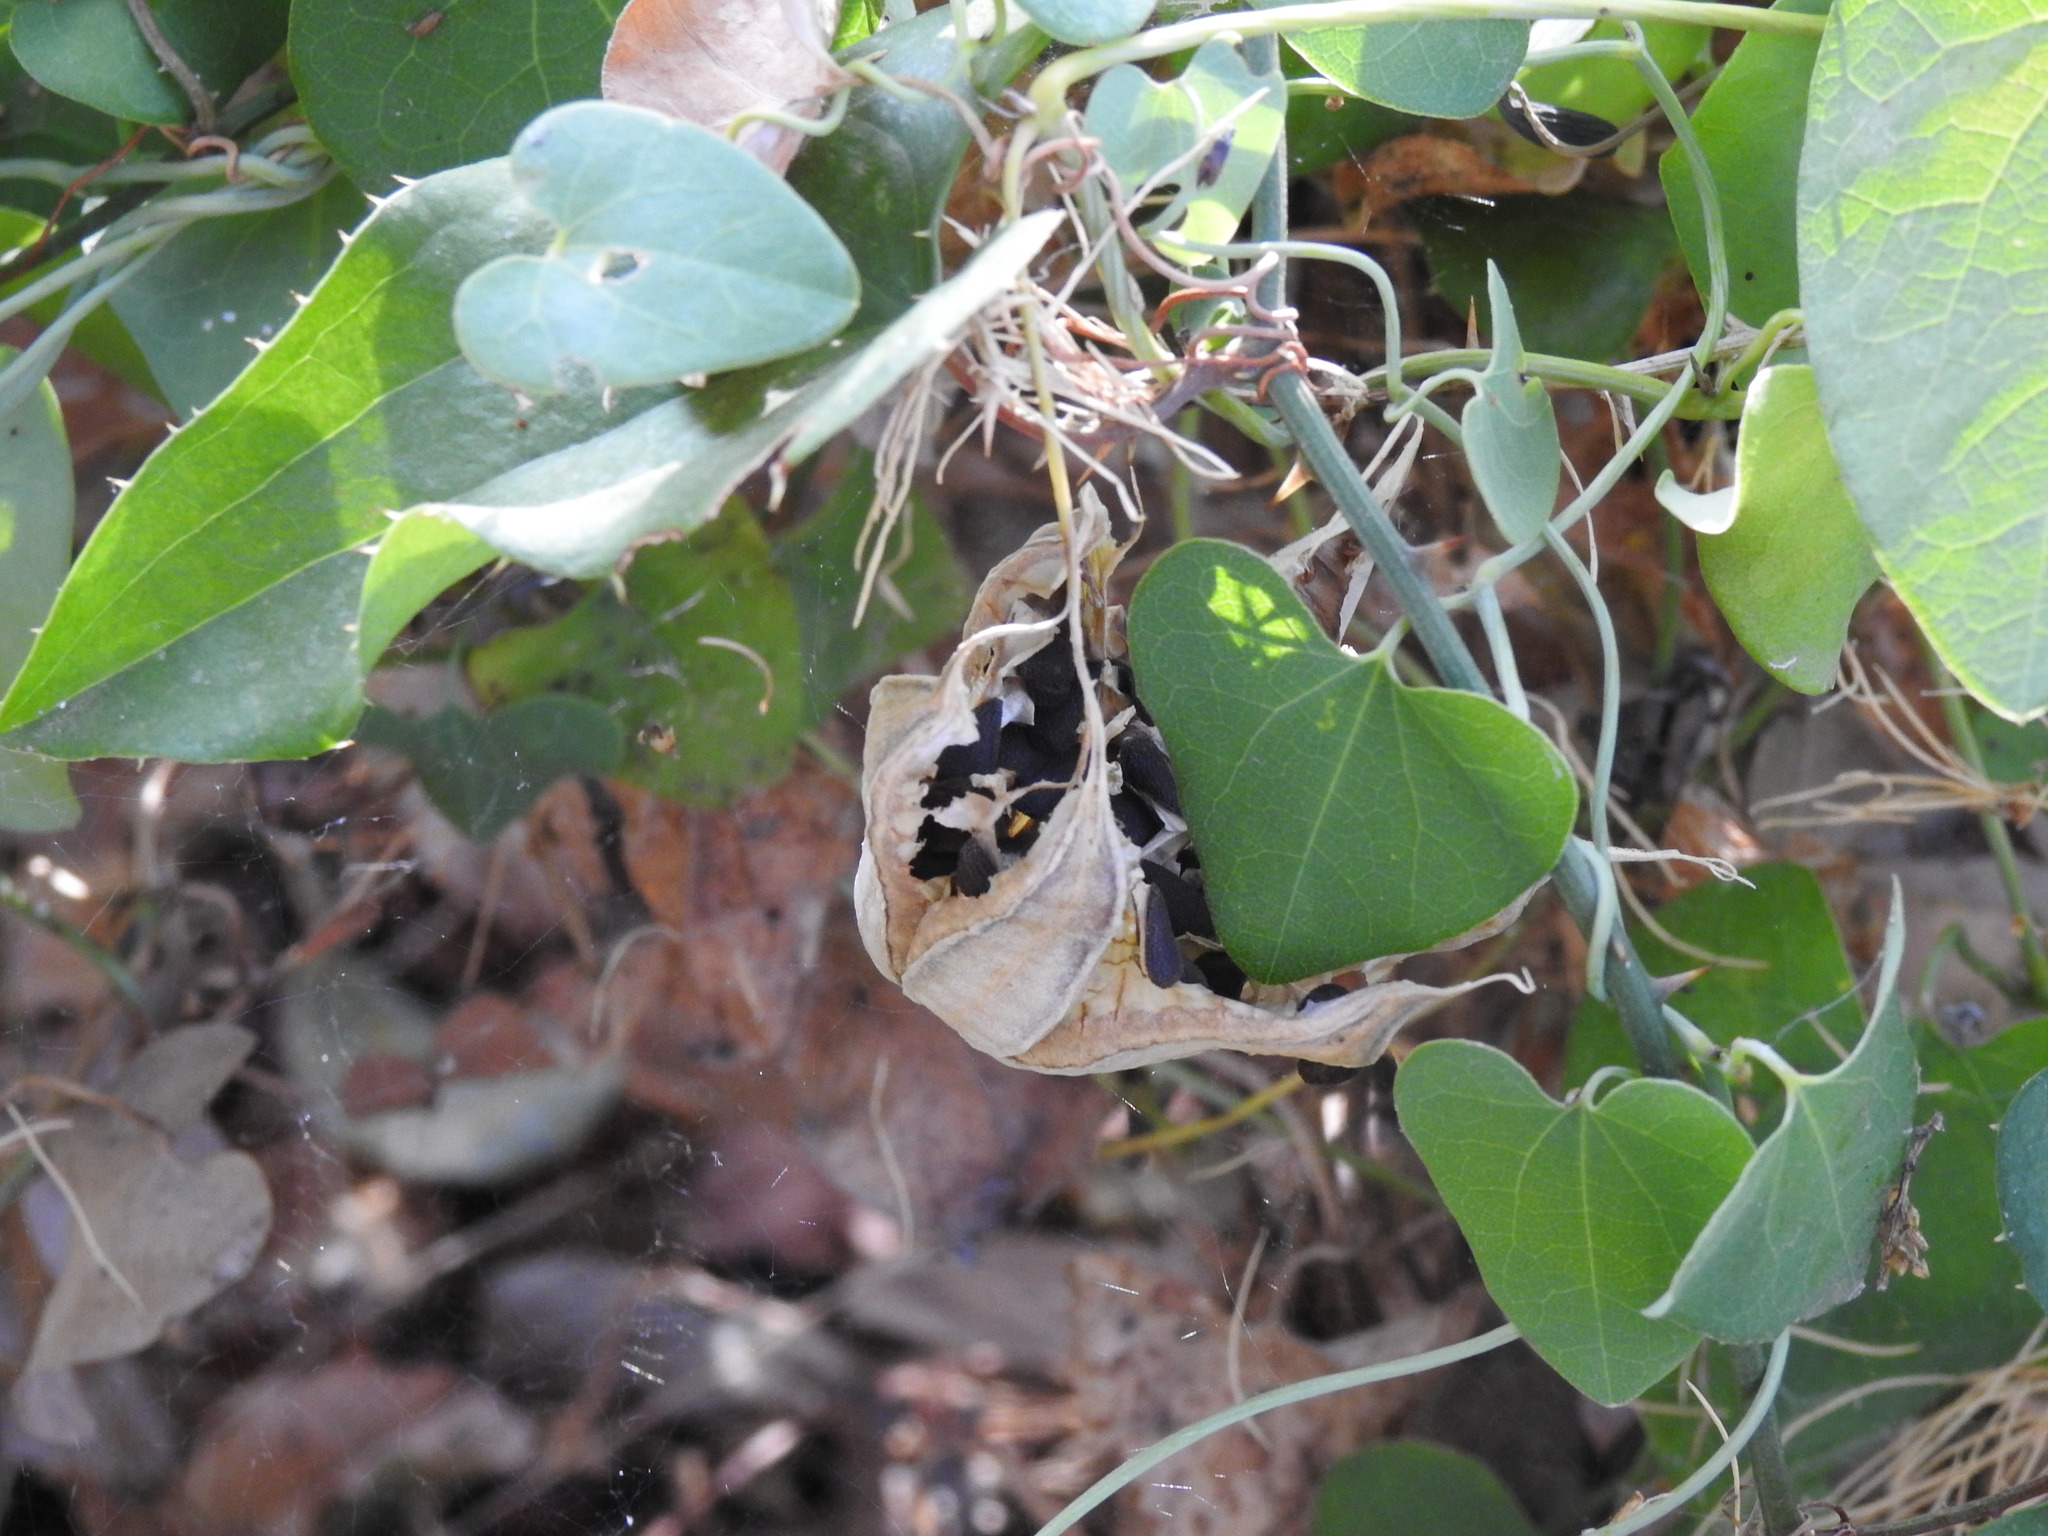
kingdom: Plantae
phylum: Tracheophyta
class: Magnoliopsida
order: Piperales
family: Aristolochiaceae
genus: Aristolochia
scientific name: Aristolochia baetica
